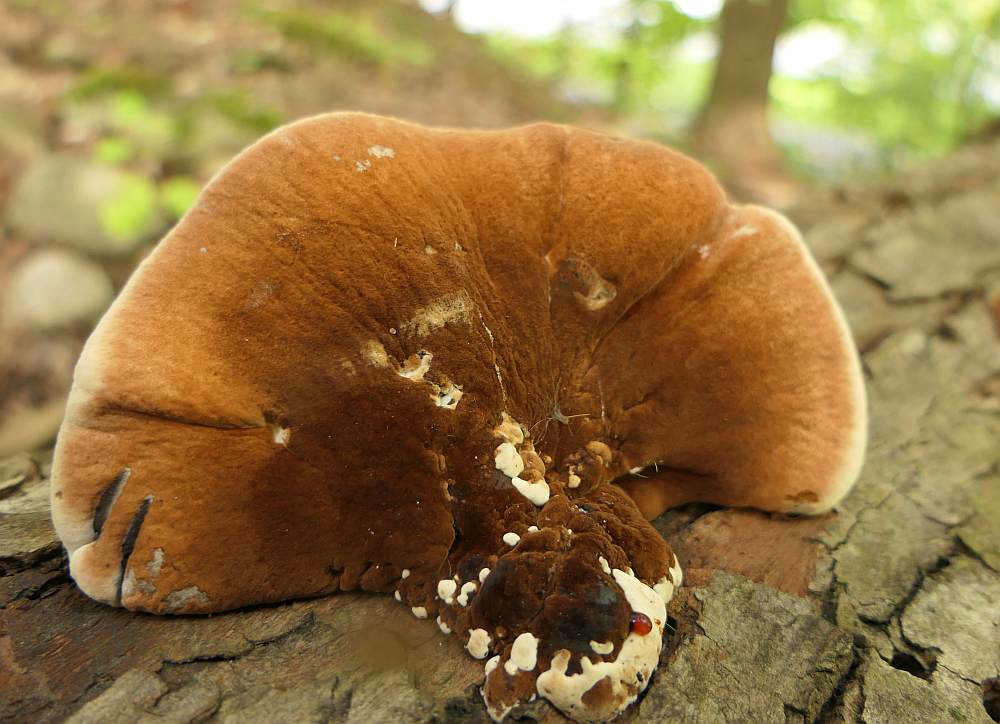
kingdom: Fungi
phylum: Basidiomycota
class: Agaricomycetes
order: Polyporales
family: Ischnodermataceae
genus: Ischnoderma
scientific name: Ischnoderma resinosum
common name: Resinous polypore
